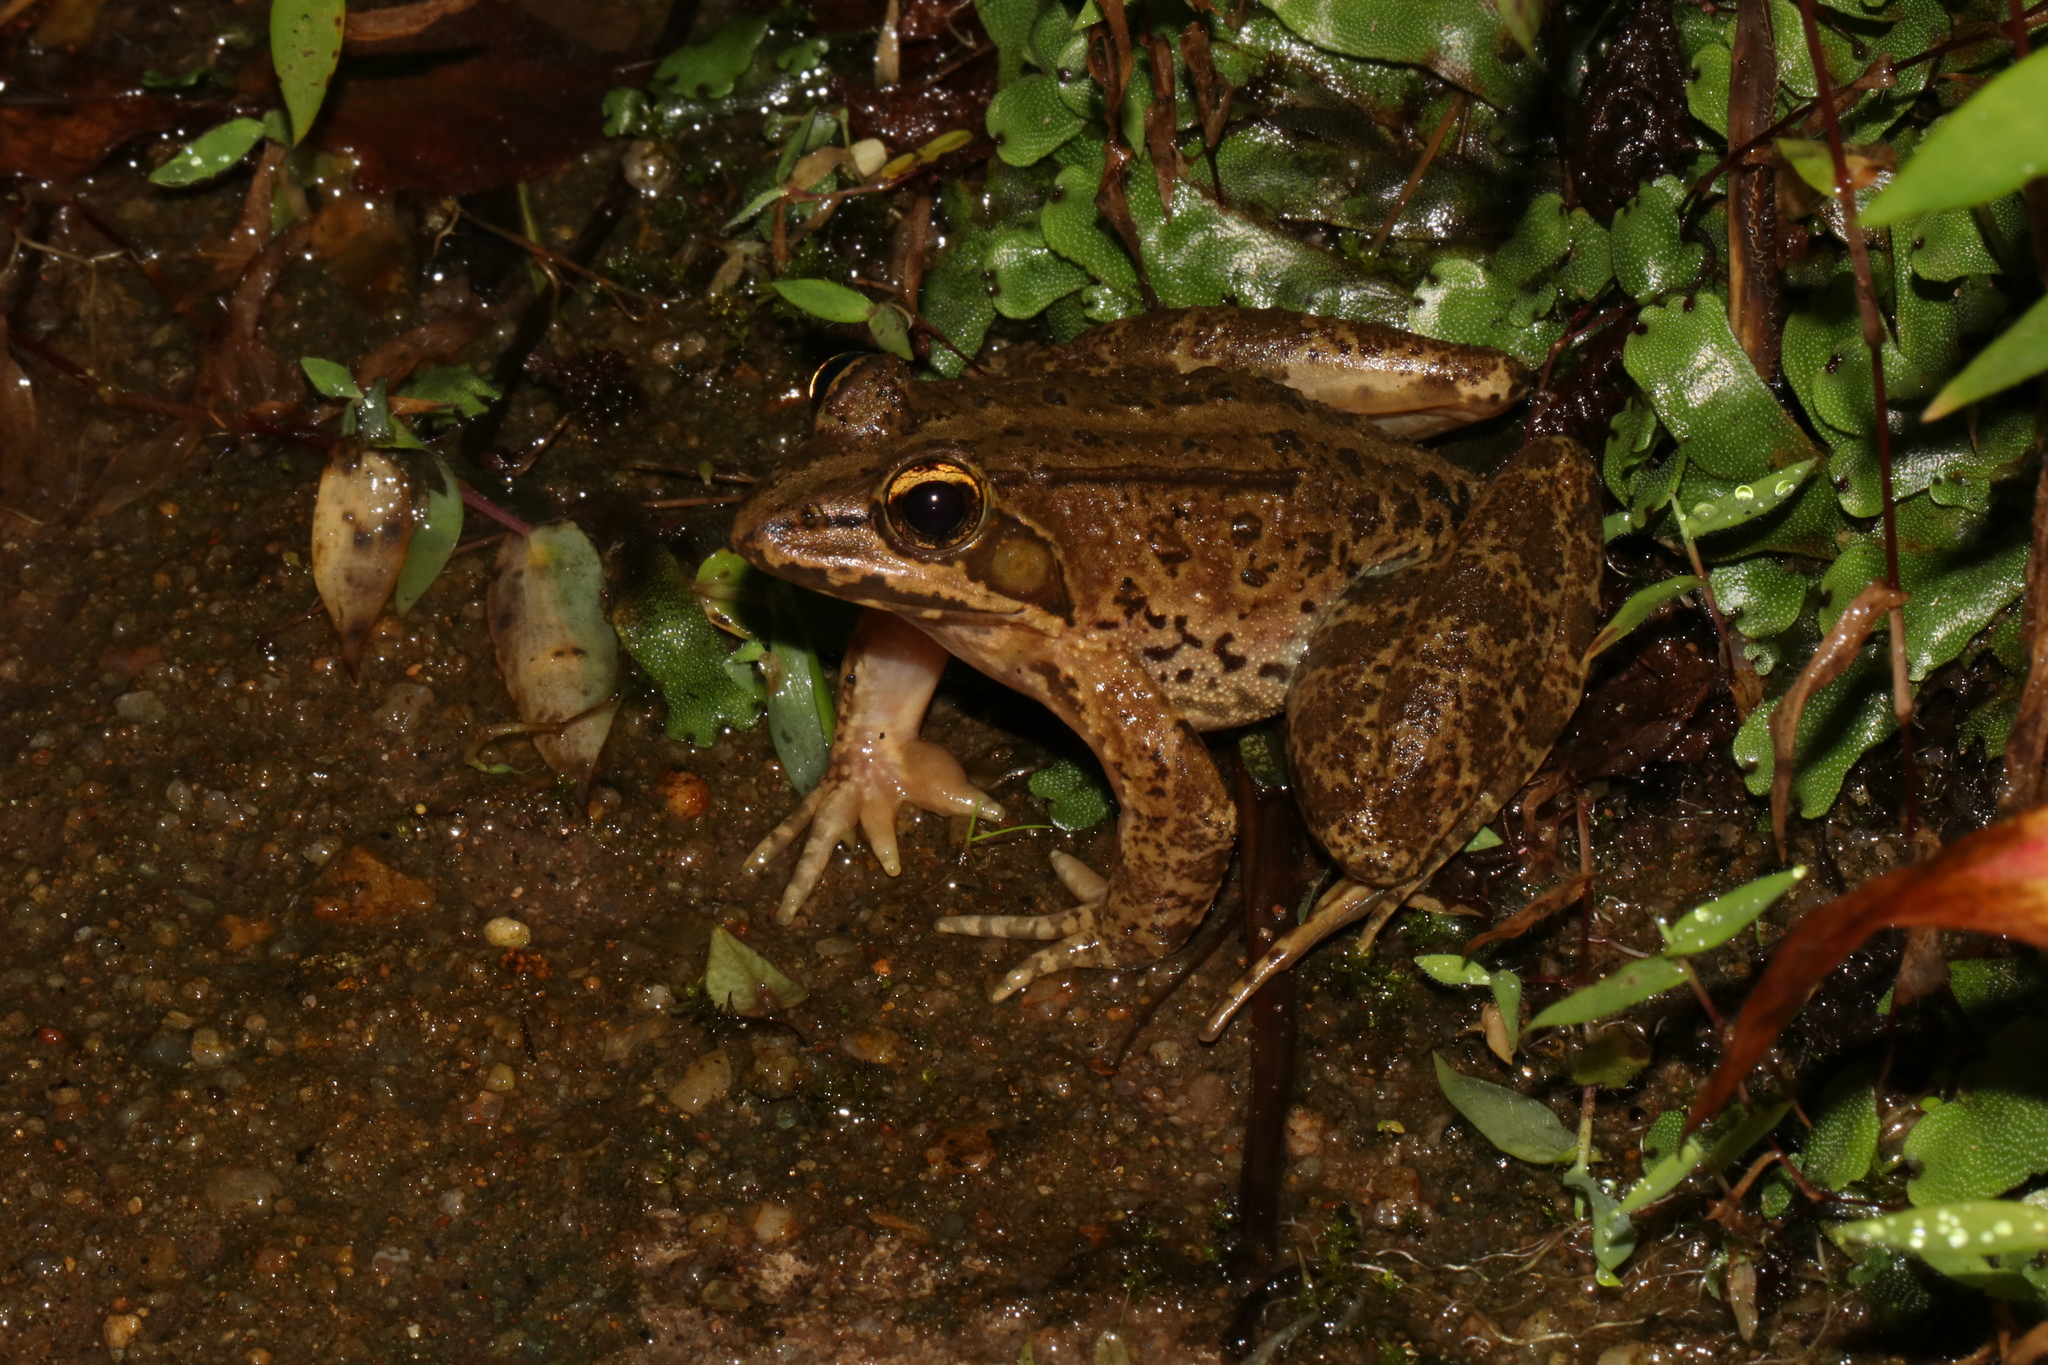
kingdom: Animalia
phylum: Chordata
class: Amphibia
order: Anura
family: Pyxicephalidae
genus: Amietia
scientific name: Amietia tenuoplicata
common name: River frog
